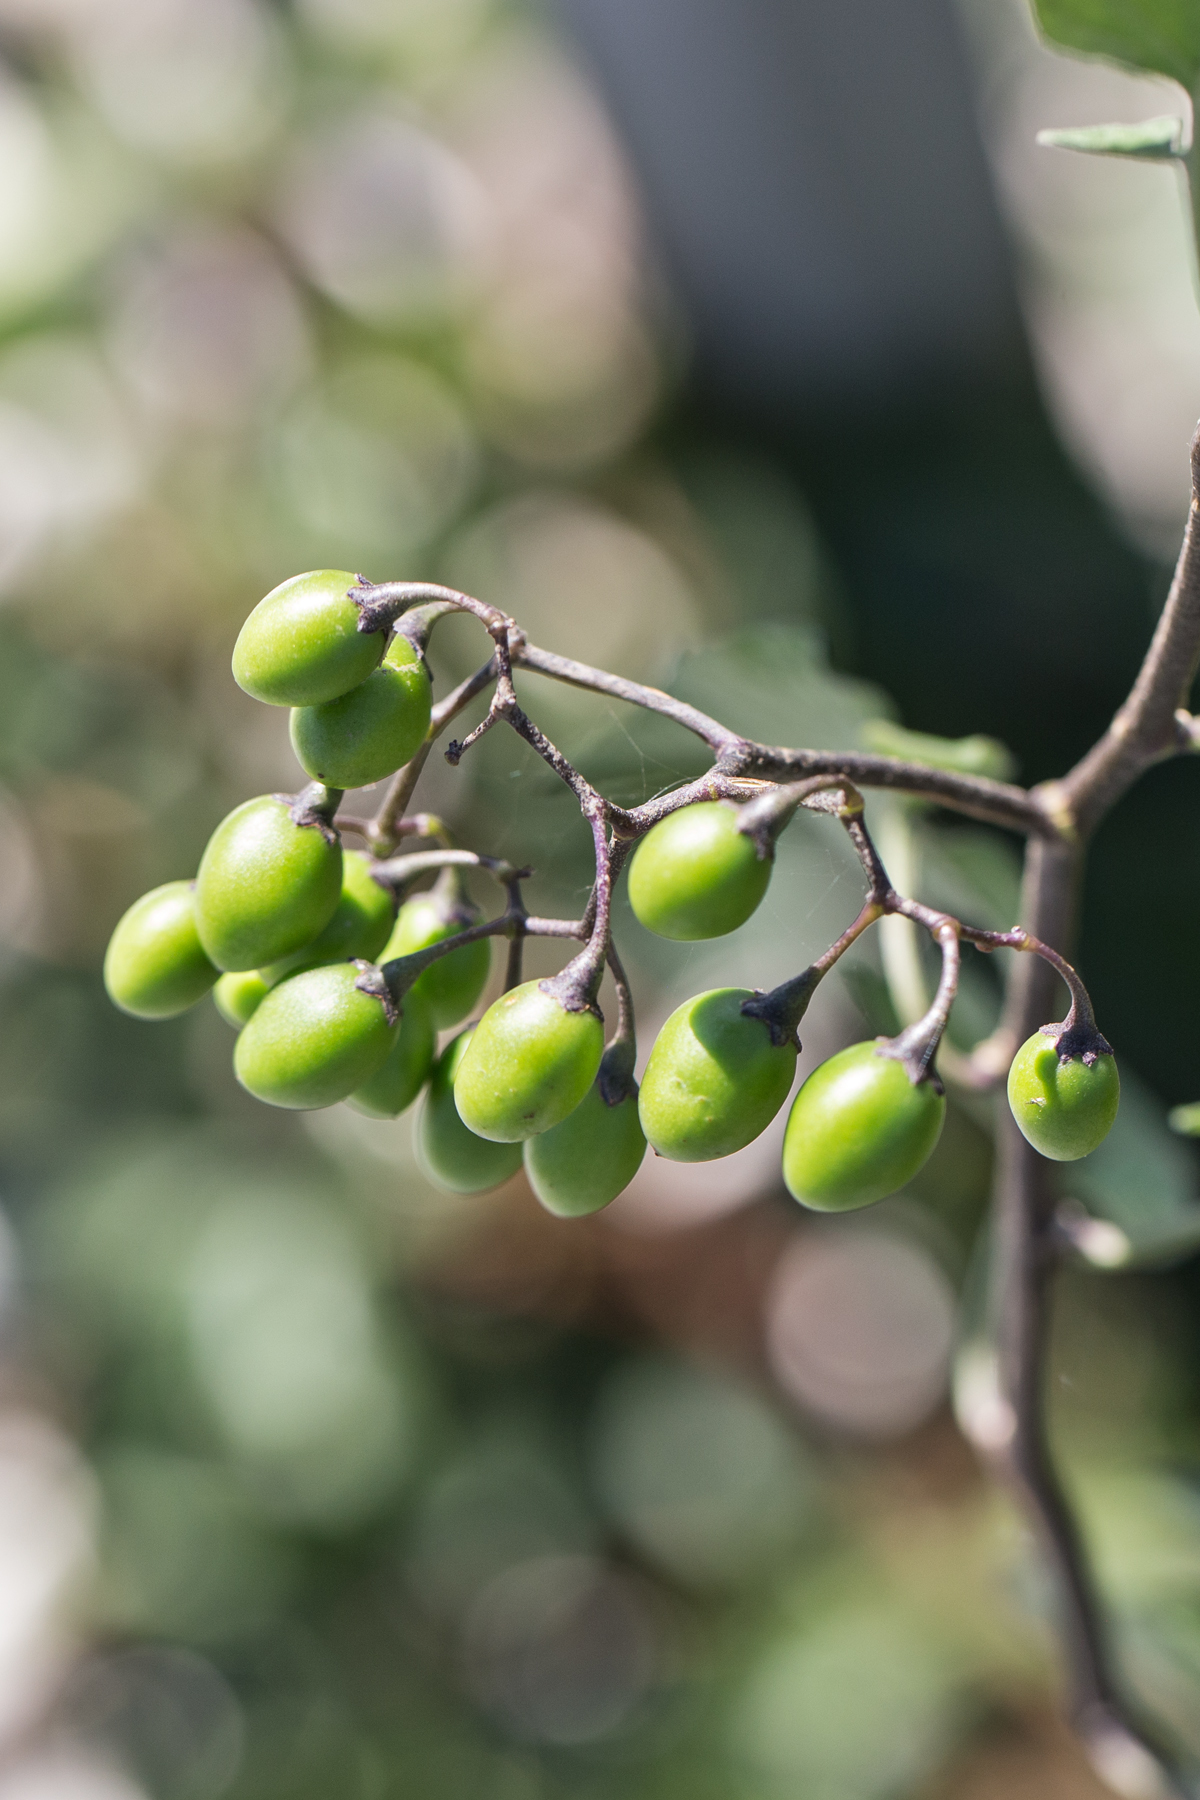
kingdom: Plantae
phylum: Tracheophyta
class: Magnoliopsida
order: Solanales
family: Solanaceae
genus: Solanum
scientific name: Solanum dulcamara
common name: Climbing nightshade
